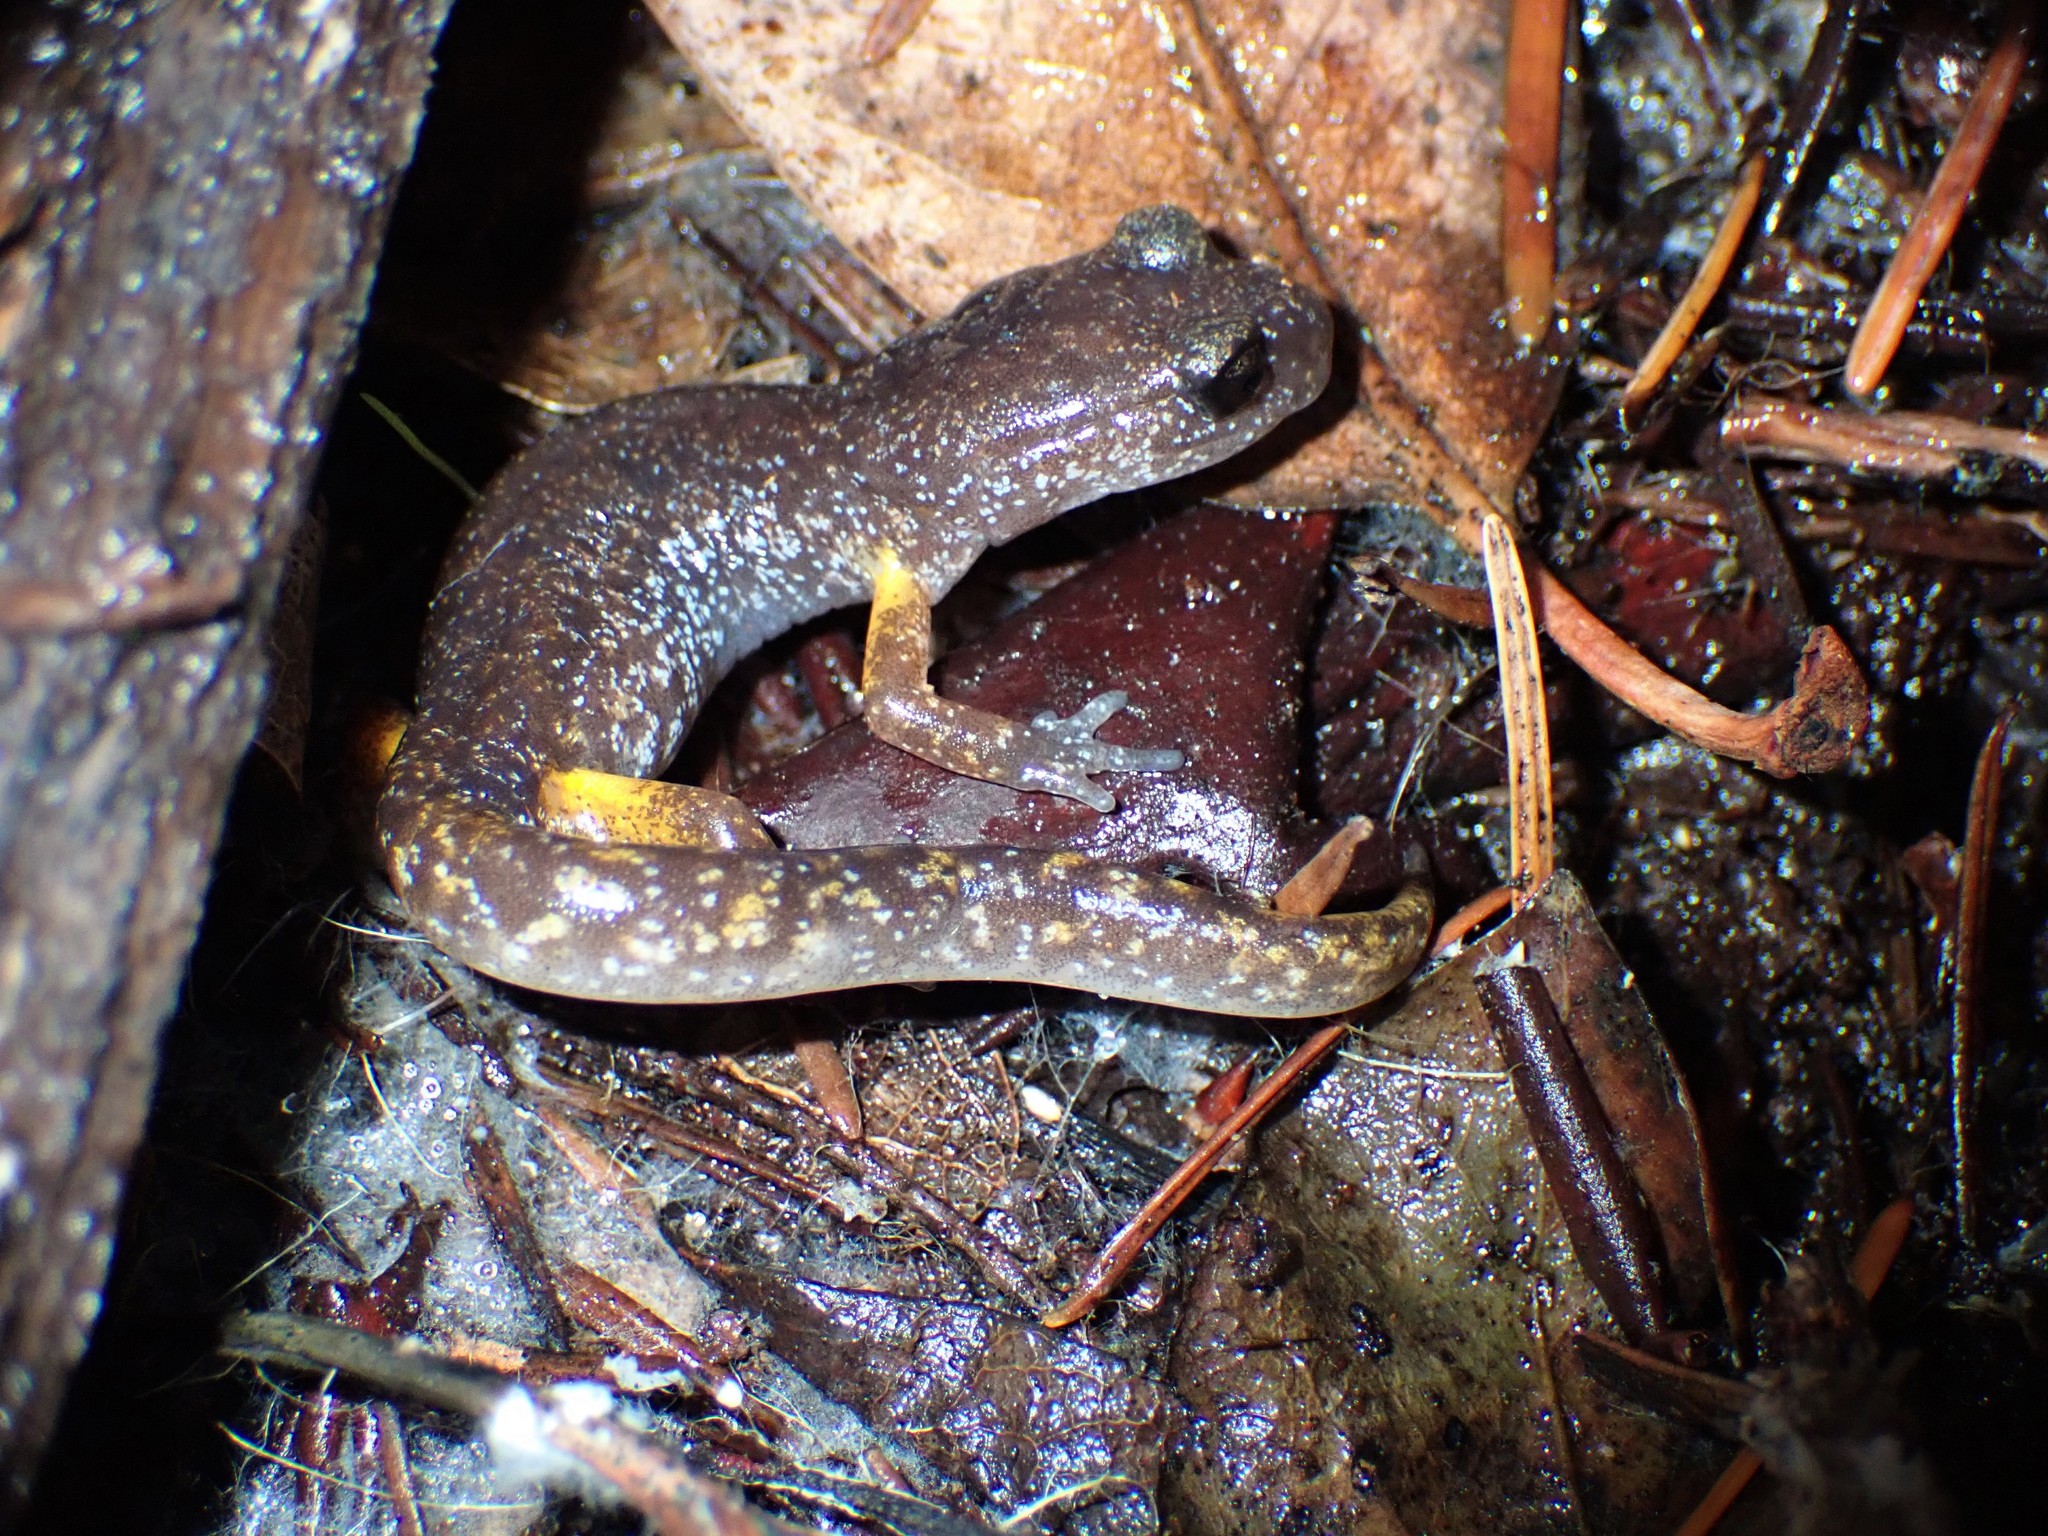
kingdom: Animalia
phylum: Chordata
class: Amphibia
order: Caudata
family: Plethodontidae
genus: Ensatina
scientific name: Ensatina eschscholtzii
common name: Ensatina
